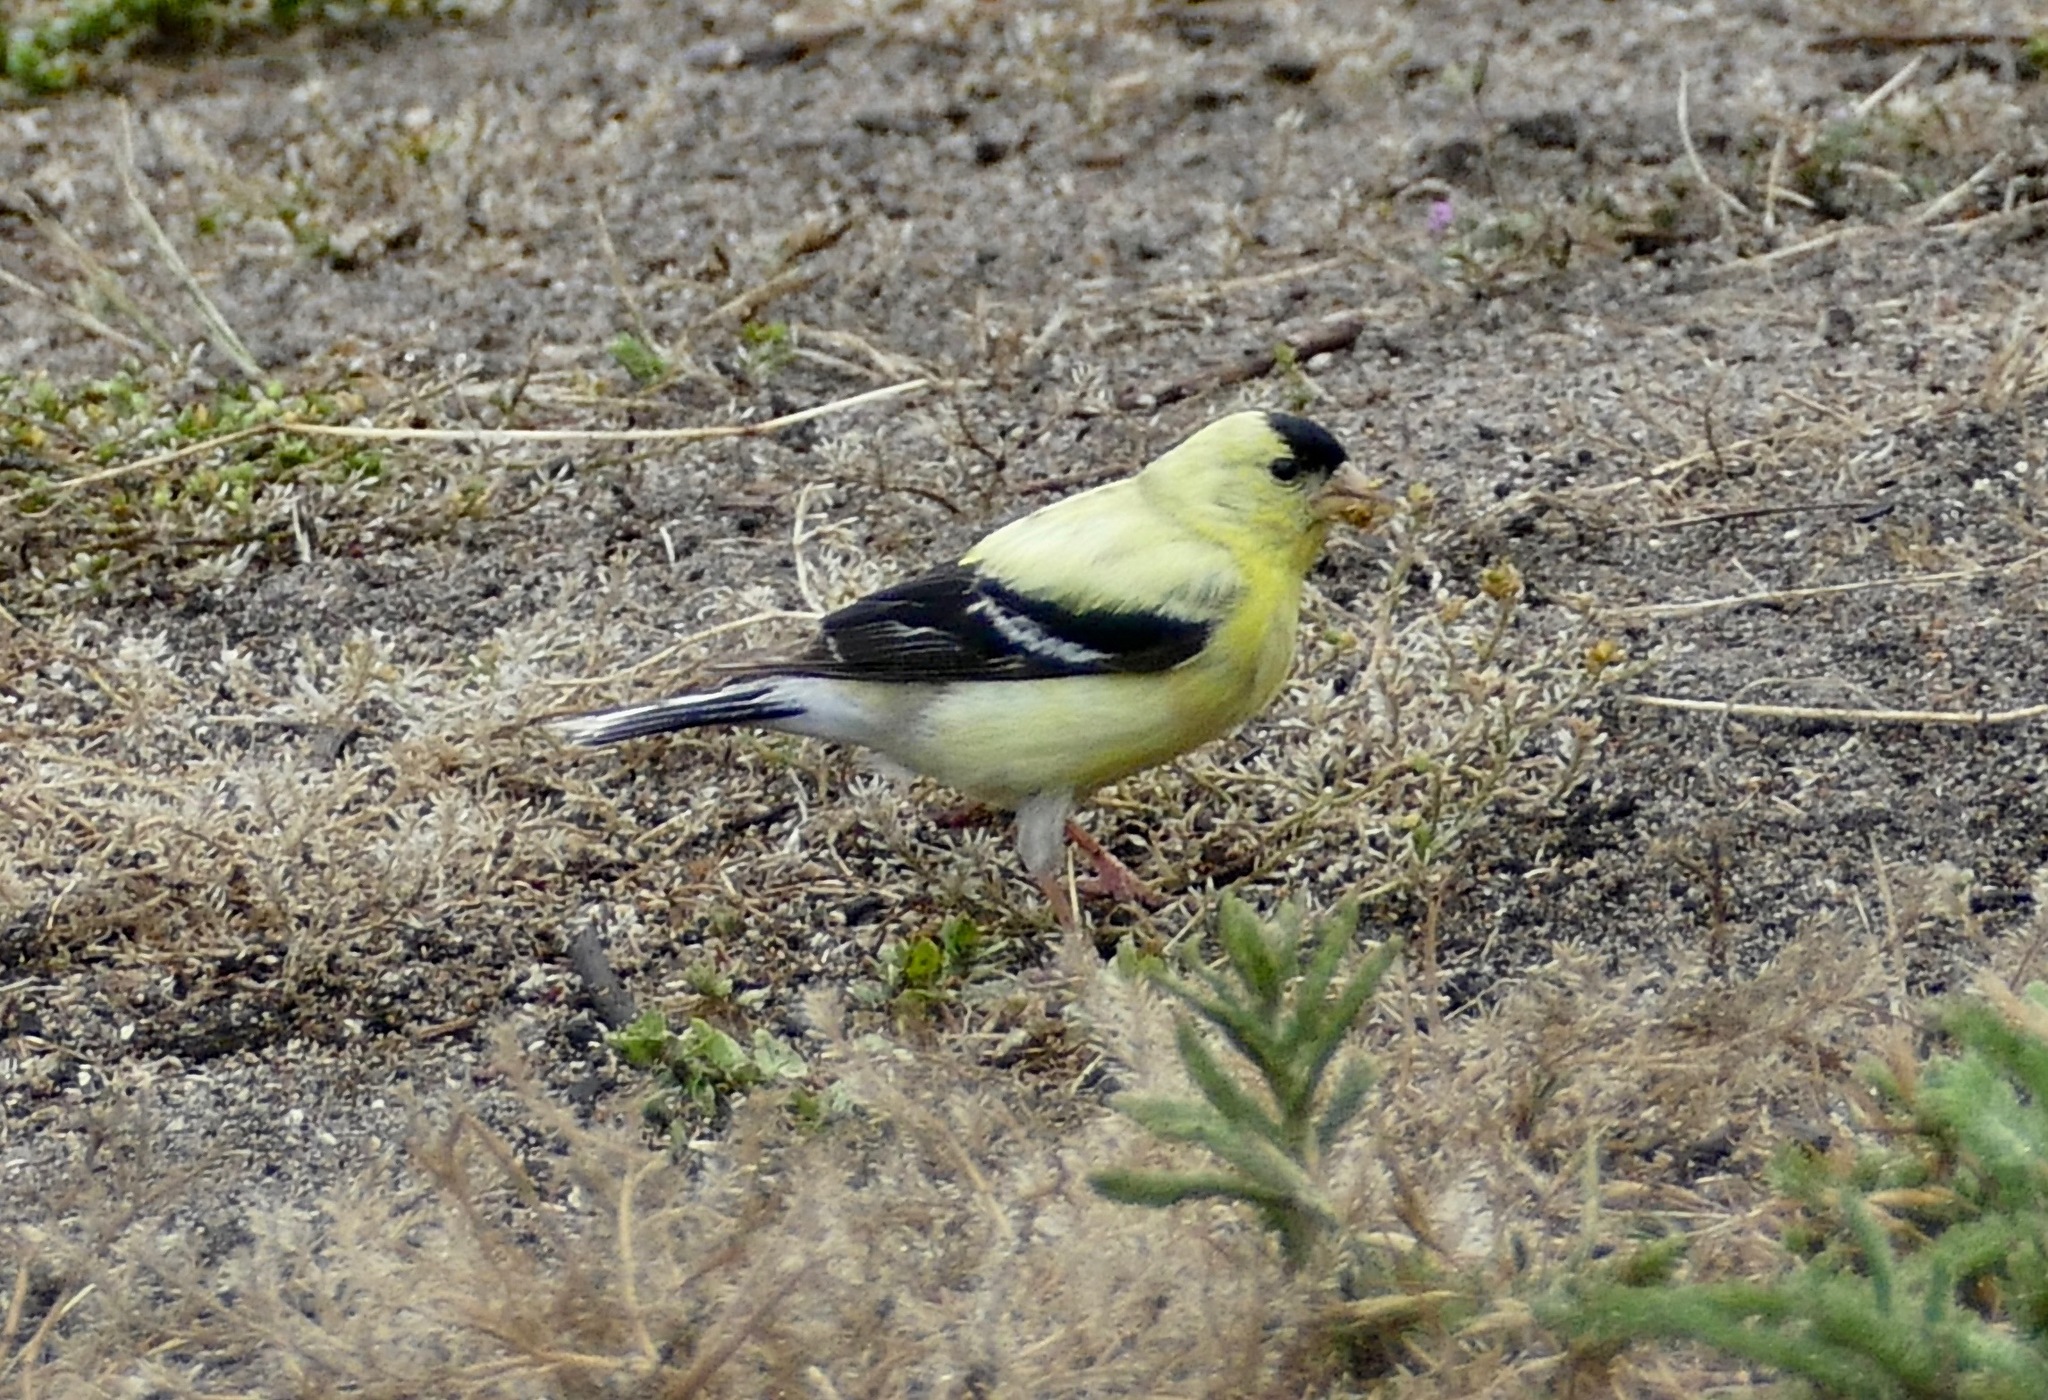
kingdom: Animalia
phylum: Chordata
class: Aves
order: Passeriformes
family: Fringillidae
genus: Spinus
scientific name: Spinus tristis
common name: American goldfinch
